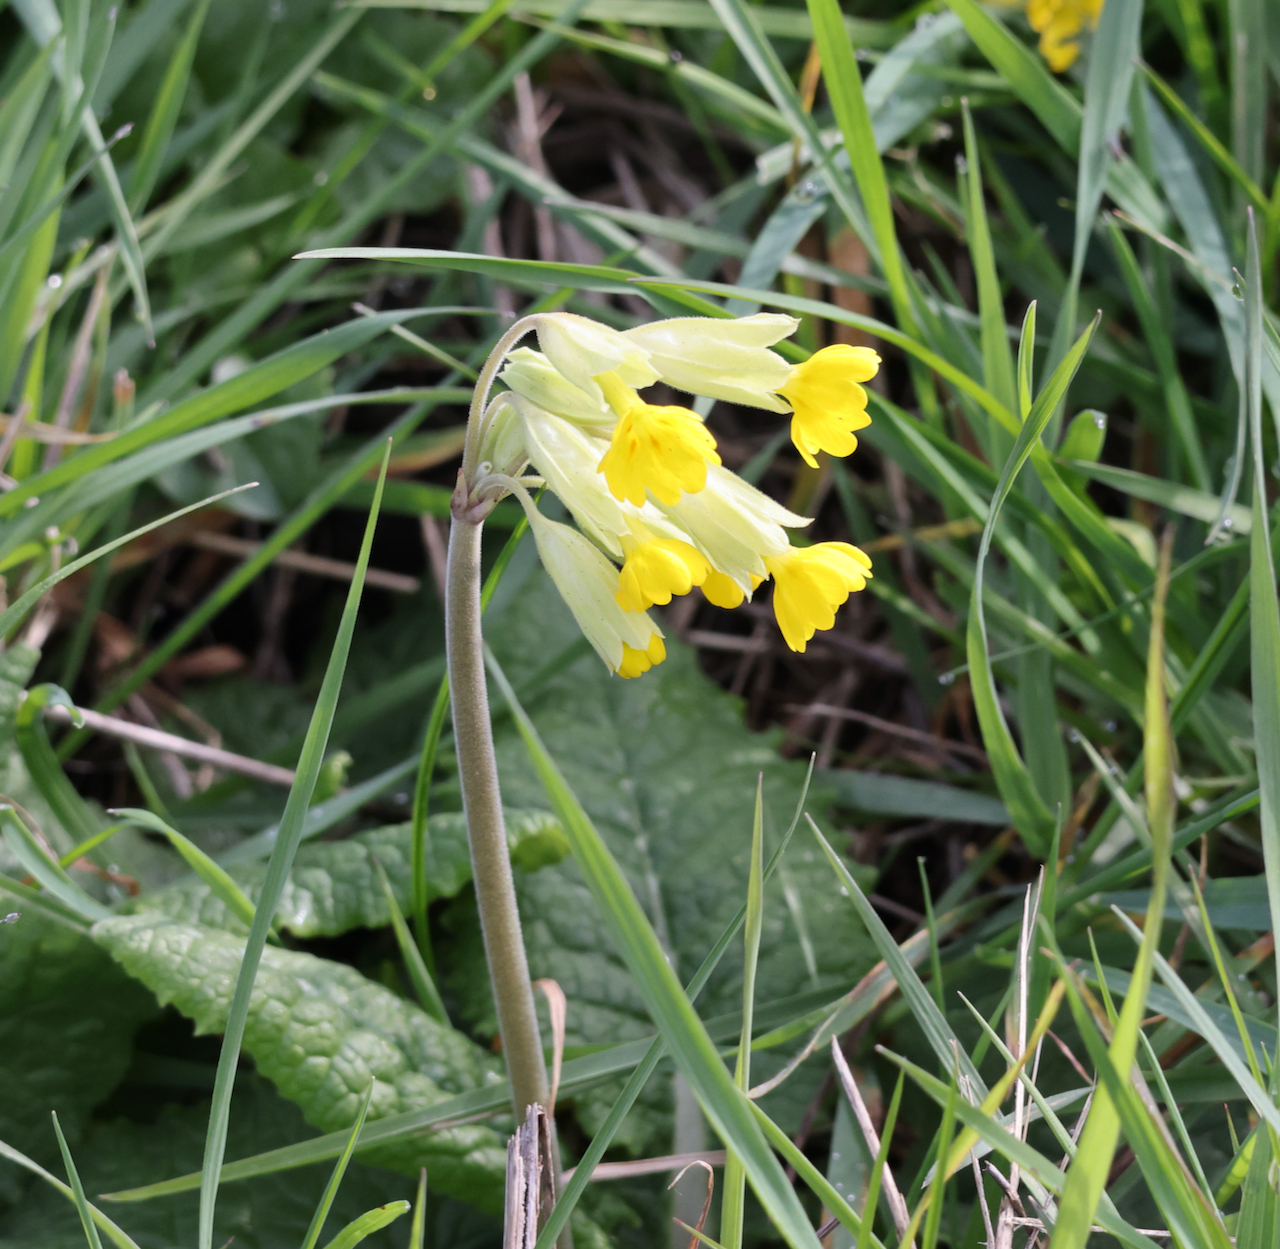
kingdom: Plantae
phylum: Tracheophyta
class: Magnoliopsida
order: Ericales
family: Primulaceae
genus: Primula
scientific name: Primula veris
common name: Cowslip
